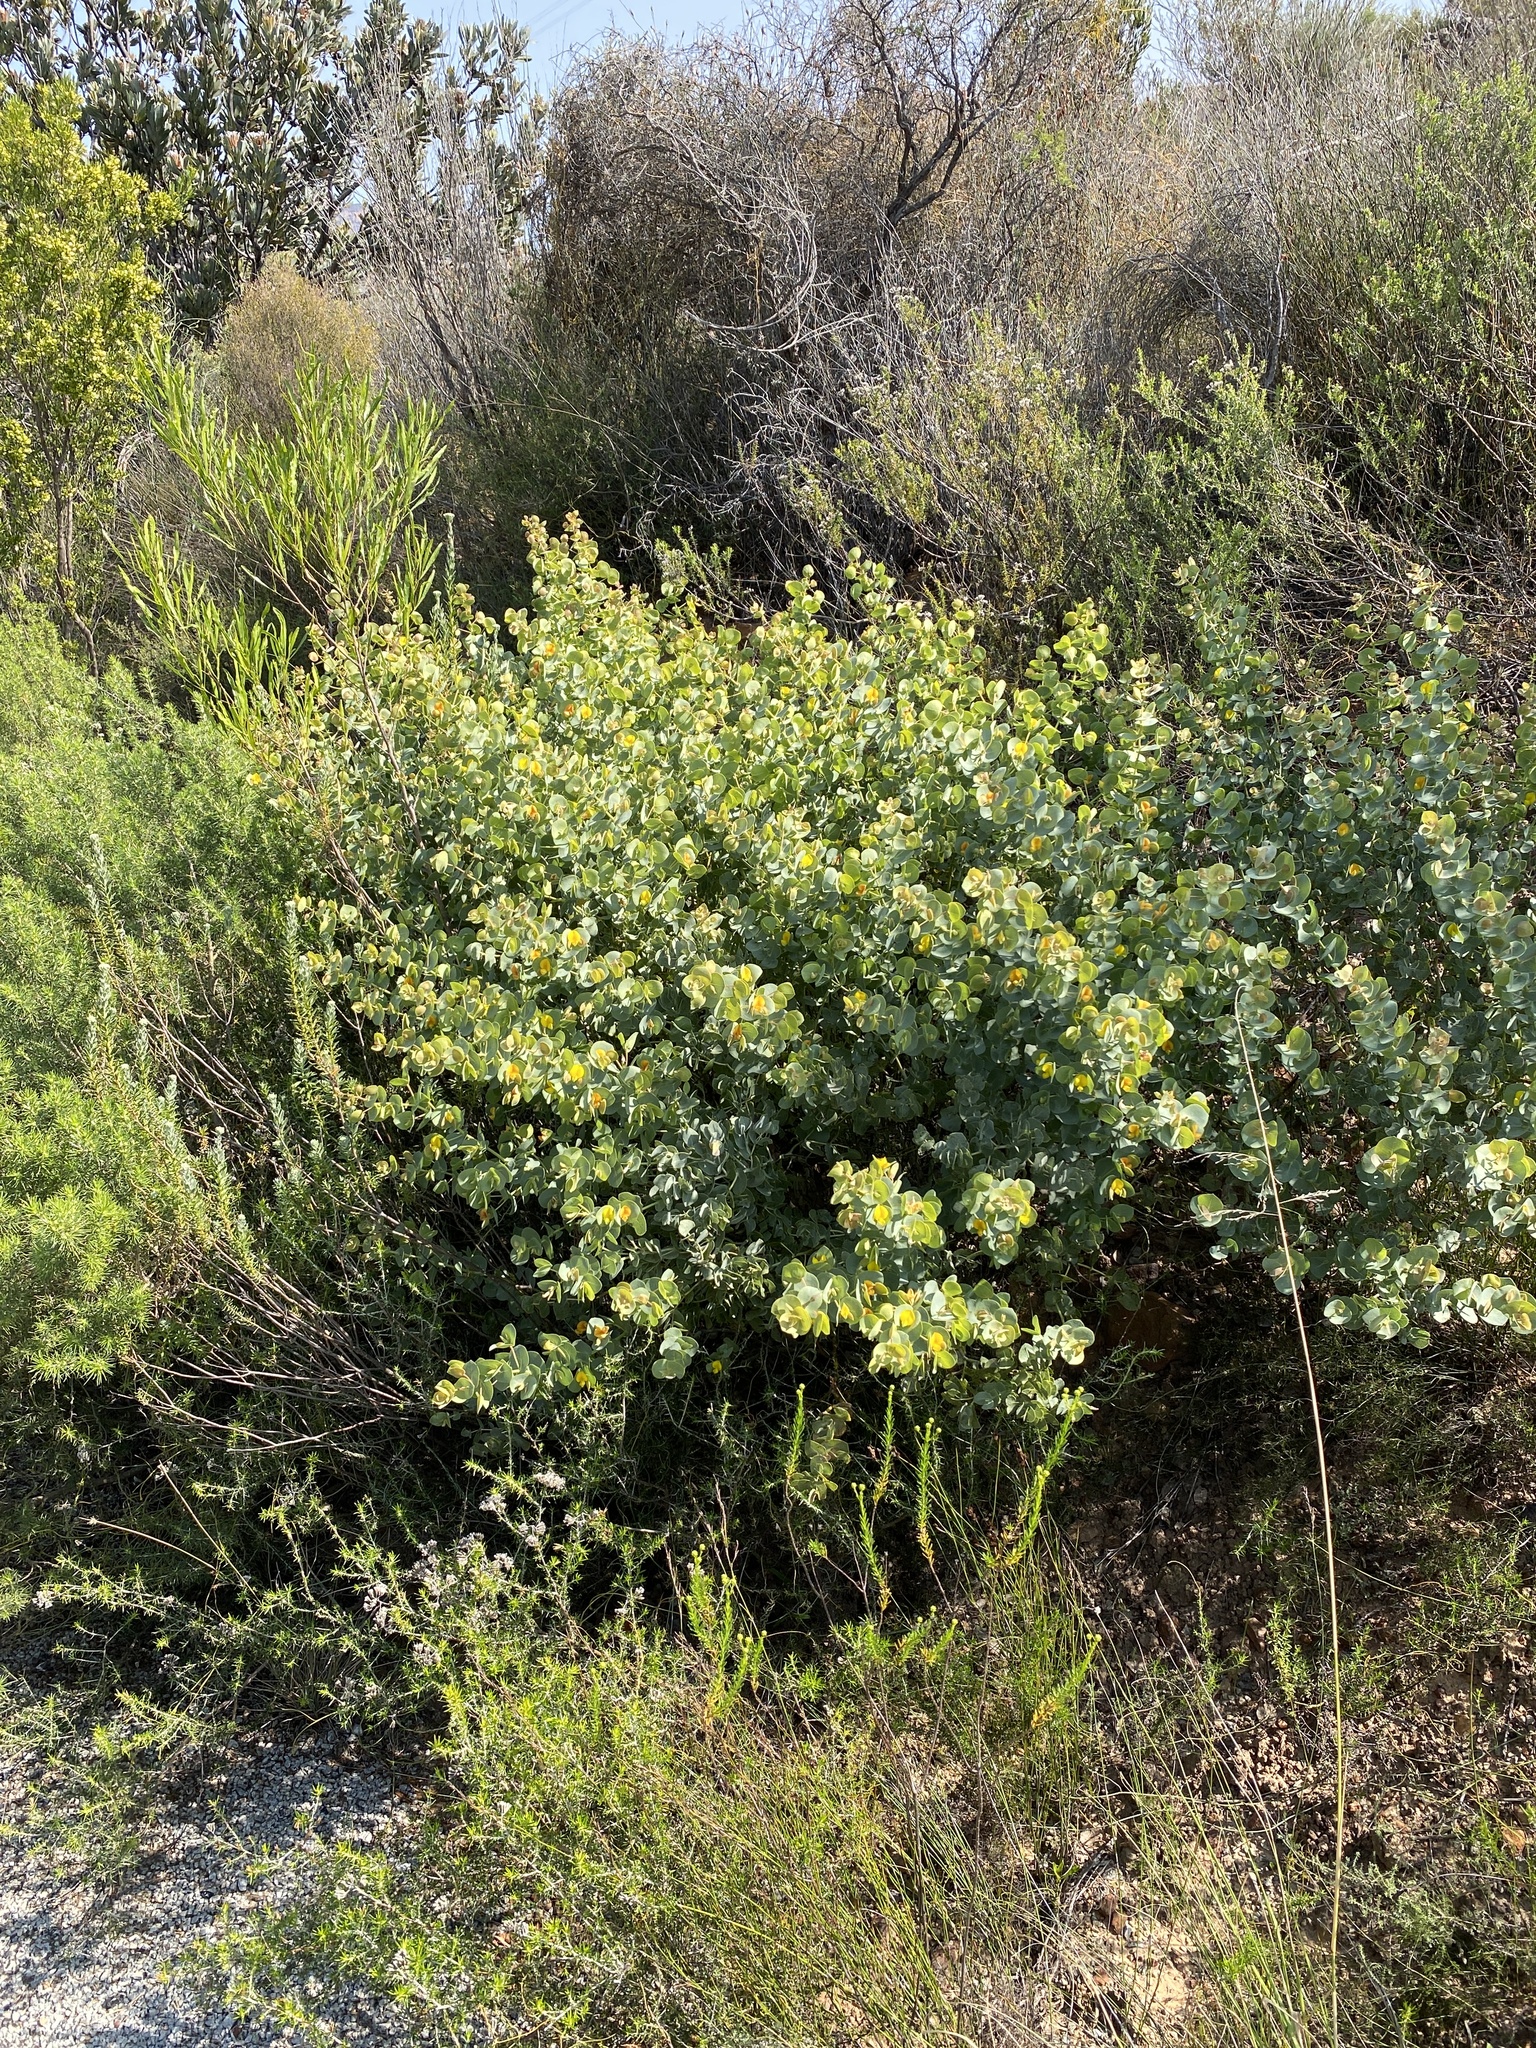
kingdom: Plantae
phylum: Tracheophyta
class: Magnoliopsida
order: Fabales
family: Fabaceae
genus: Rafnia
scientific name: Rafnia amplexicaulis
